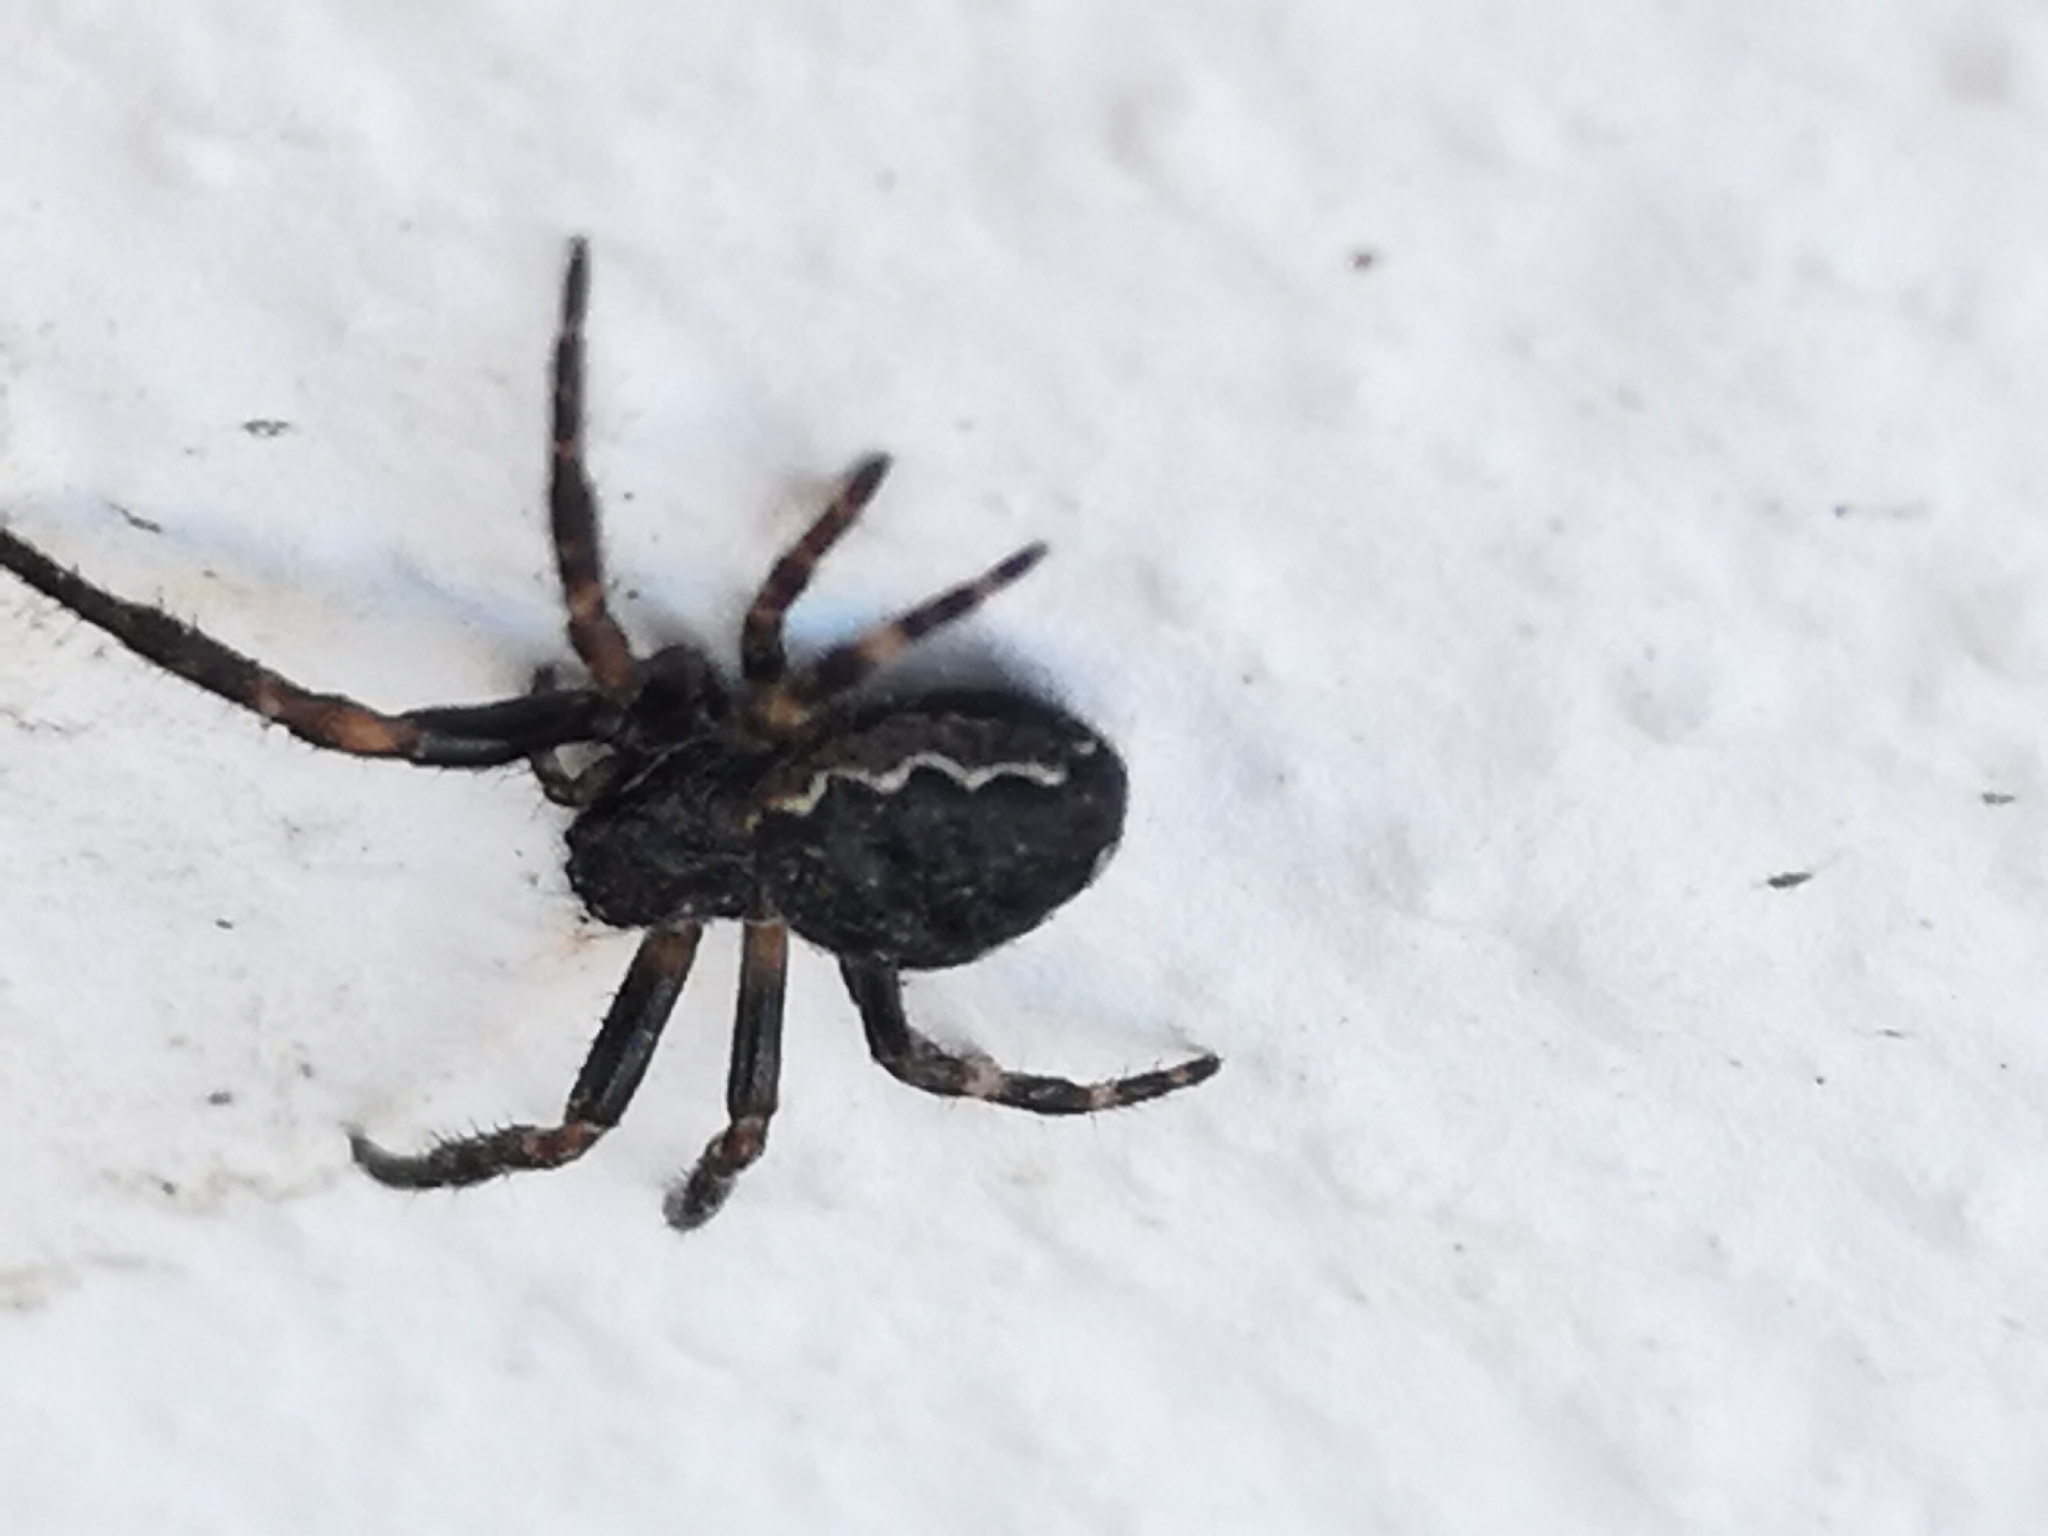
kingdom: Animalia
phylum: Arthropoda
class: Arachnida
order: Araneae
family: Araneidae
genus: Nuctenea
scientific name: Nuctenea umbratica
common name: Toad spider
